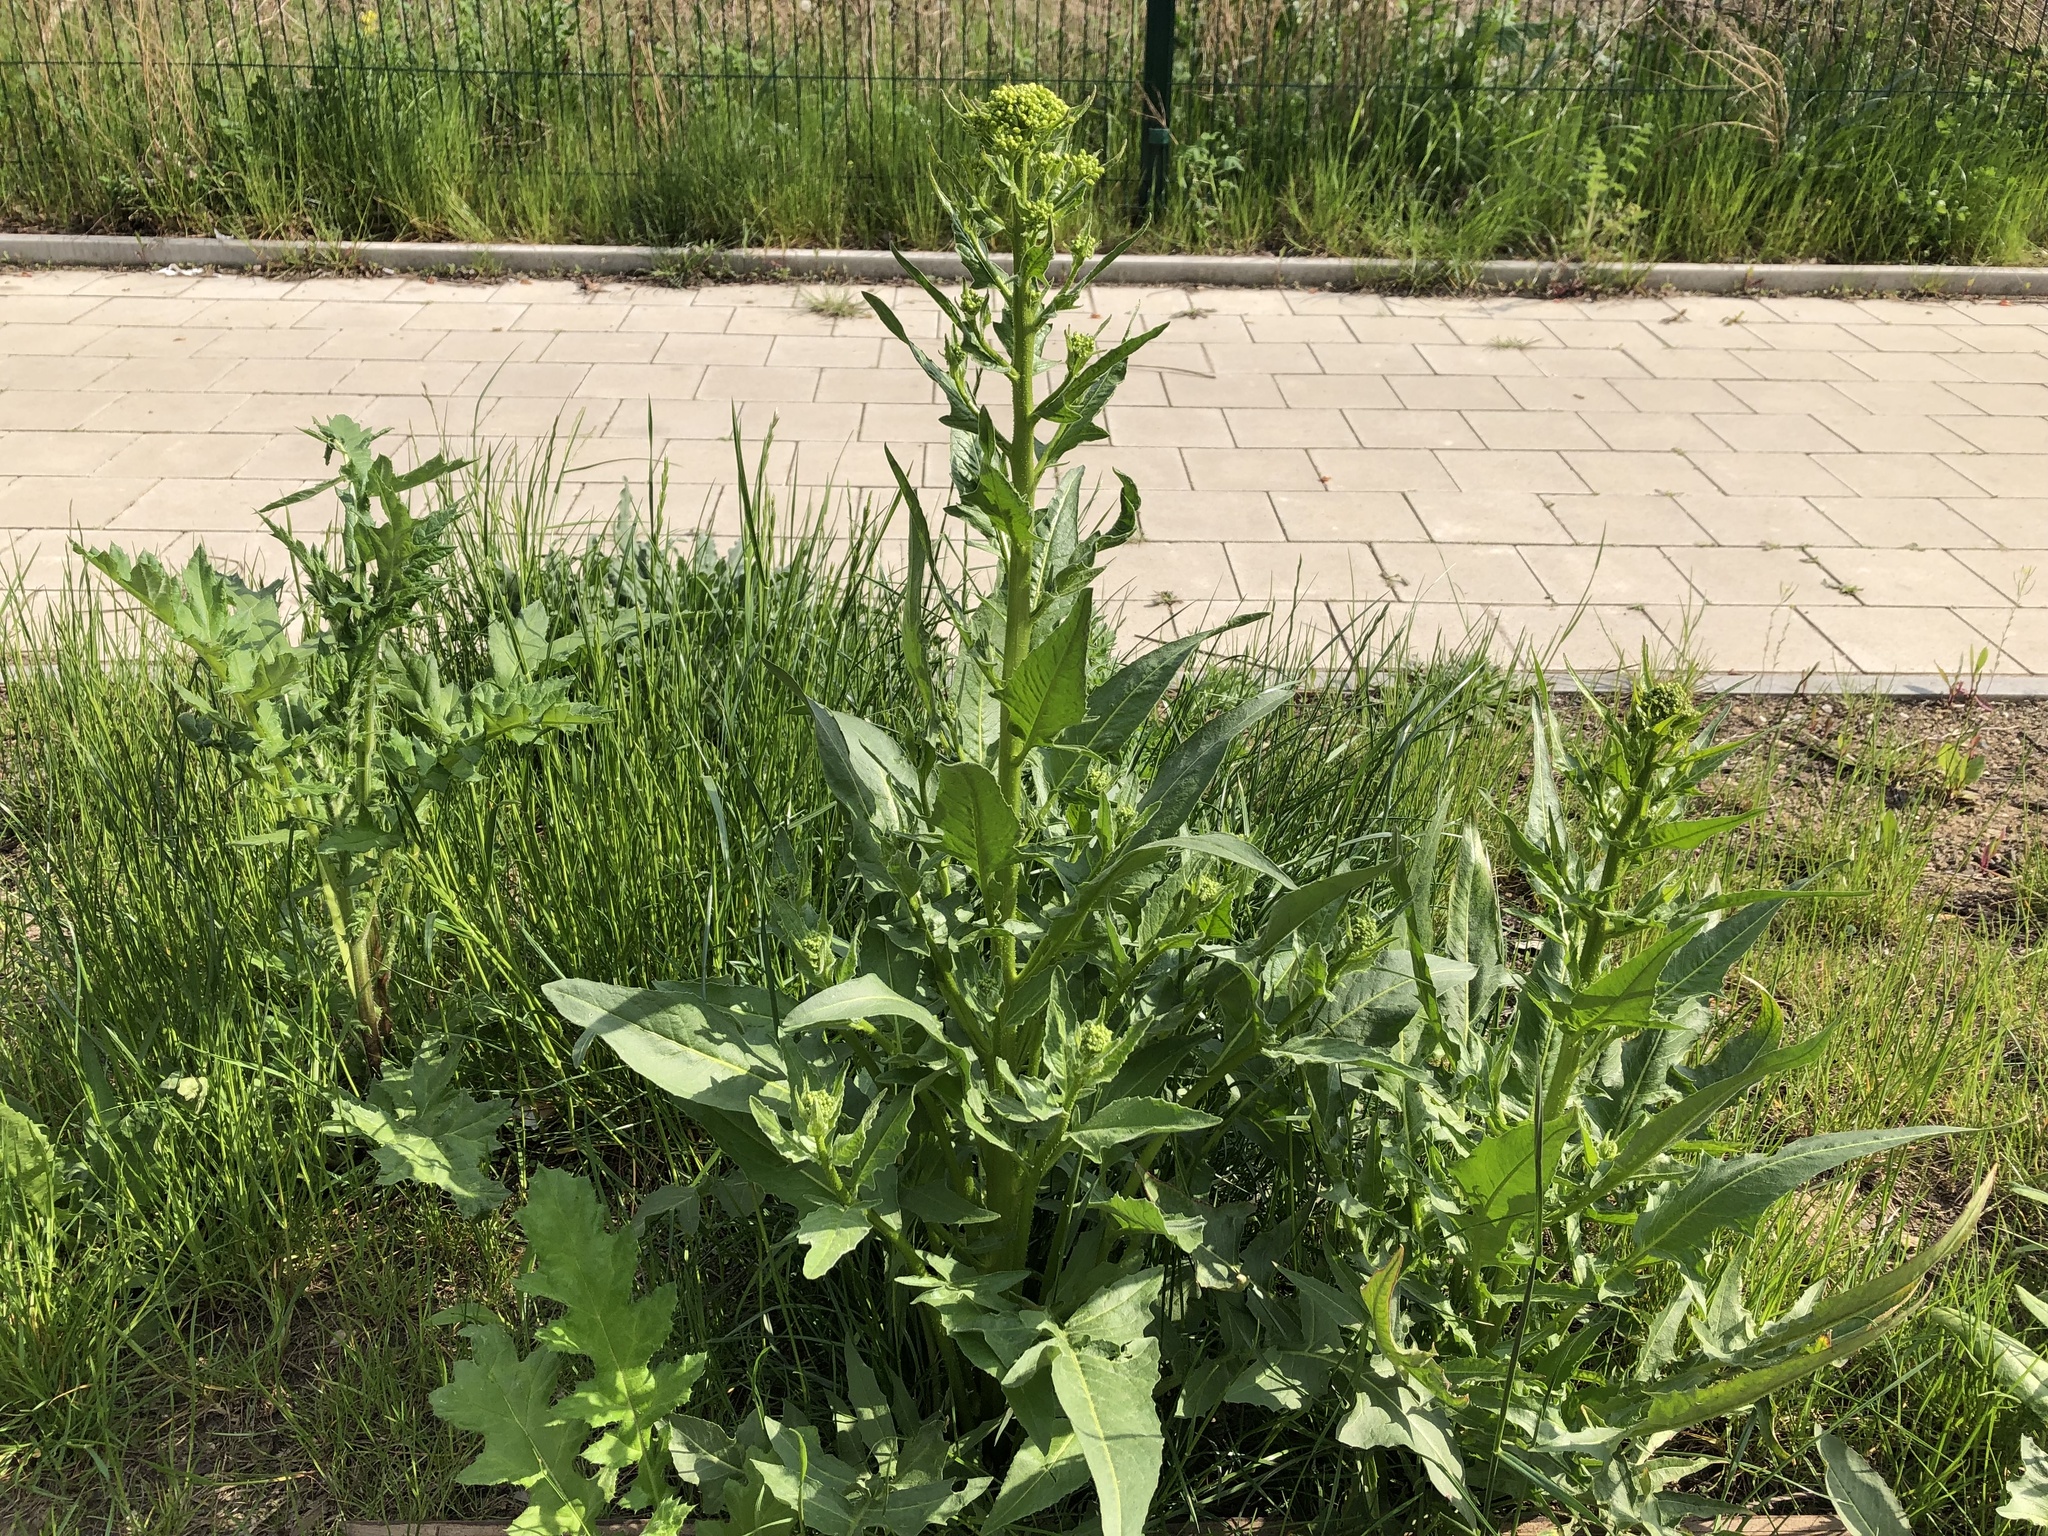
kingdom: Plantae
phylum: Tracheophyta
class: Magnoliopsida
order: Brassicales
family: Brassicaceae
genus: Bunias
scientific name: Bunias orientalis
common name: Warty-cabbage
